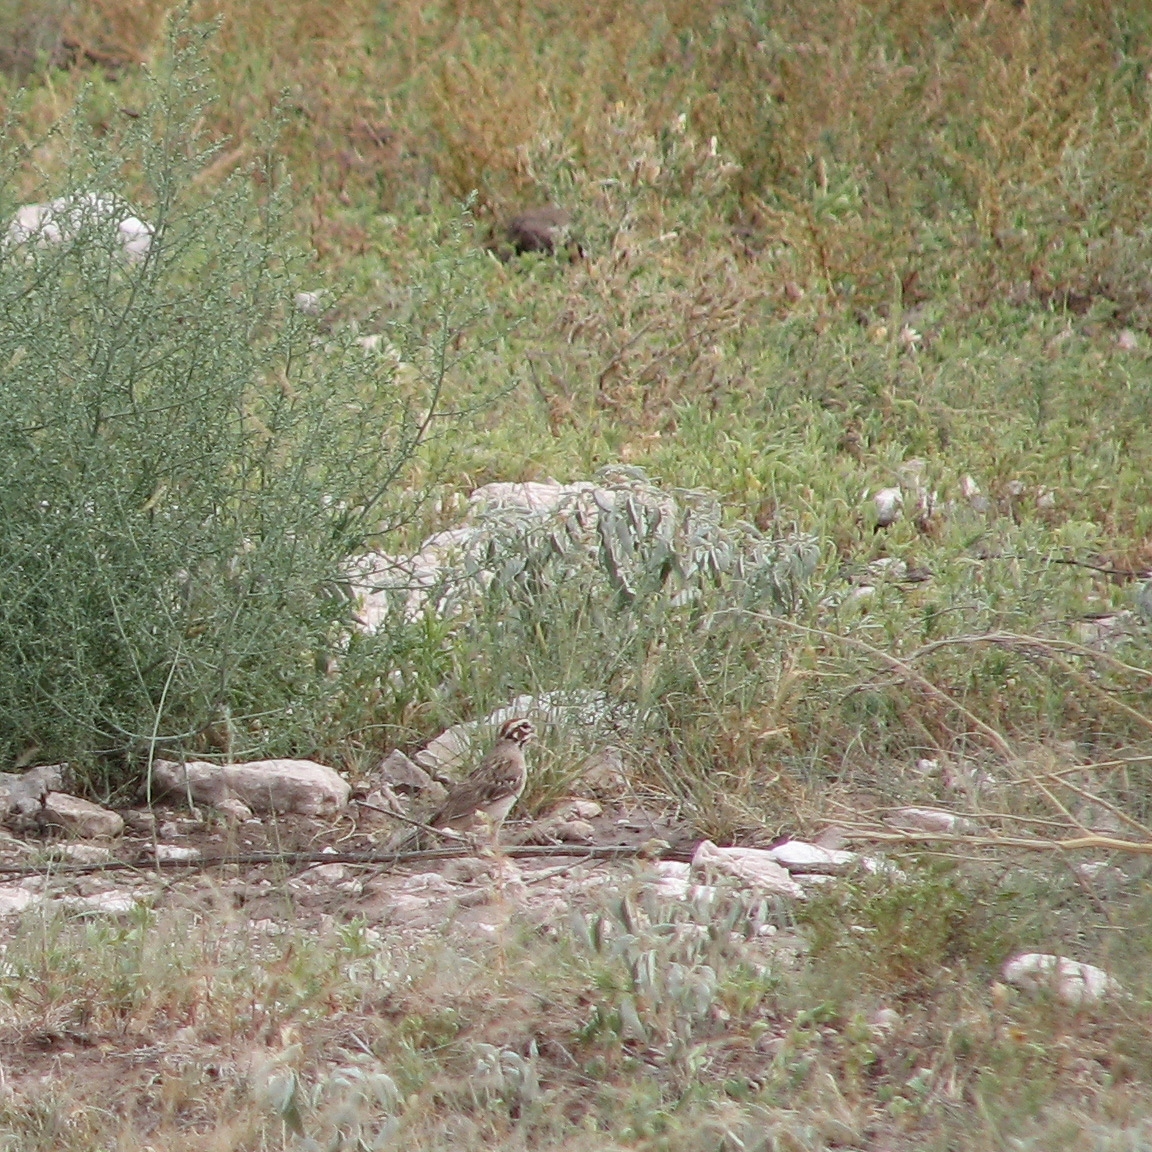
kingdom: Animalia
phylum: Chordata
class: Aves
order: Passeriformes
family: Passerellidae
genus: Chondestes
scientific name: Chondestes grammacus
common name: Lark sparrow
